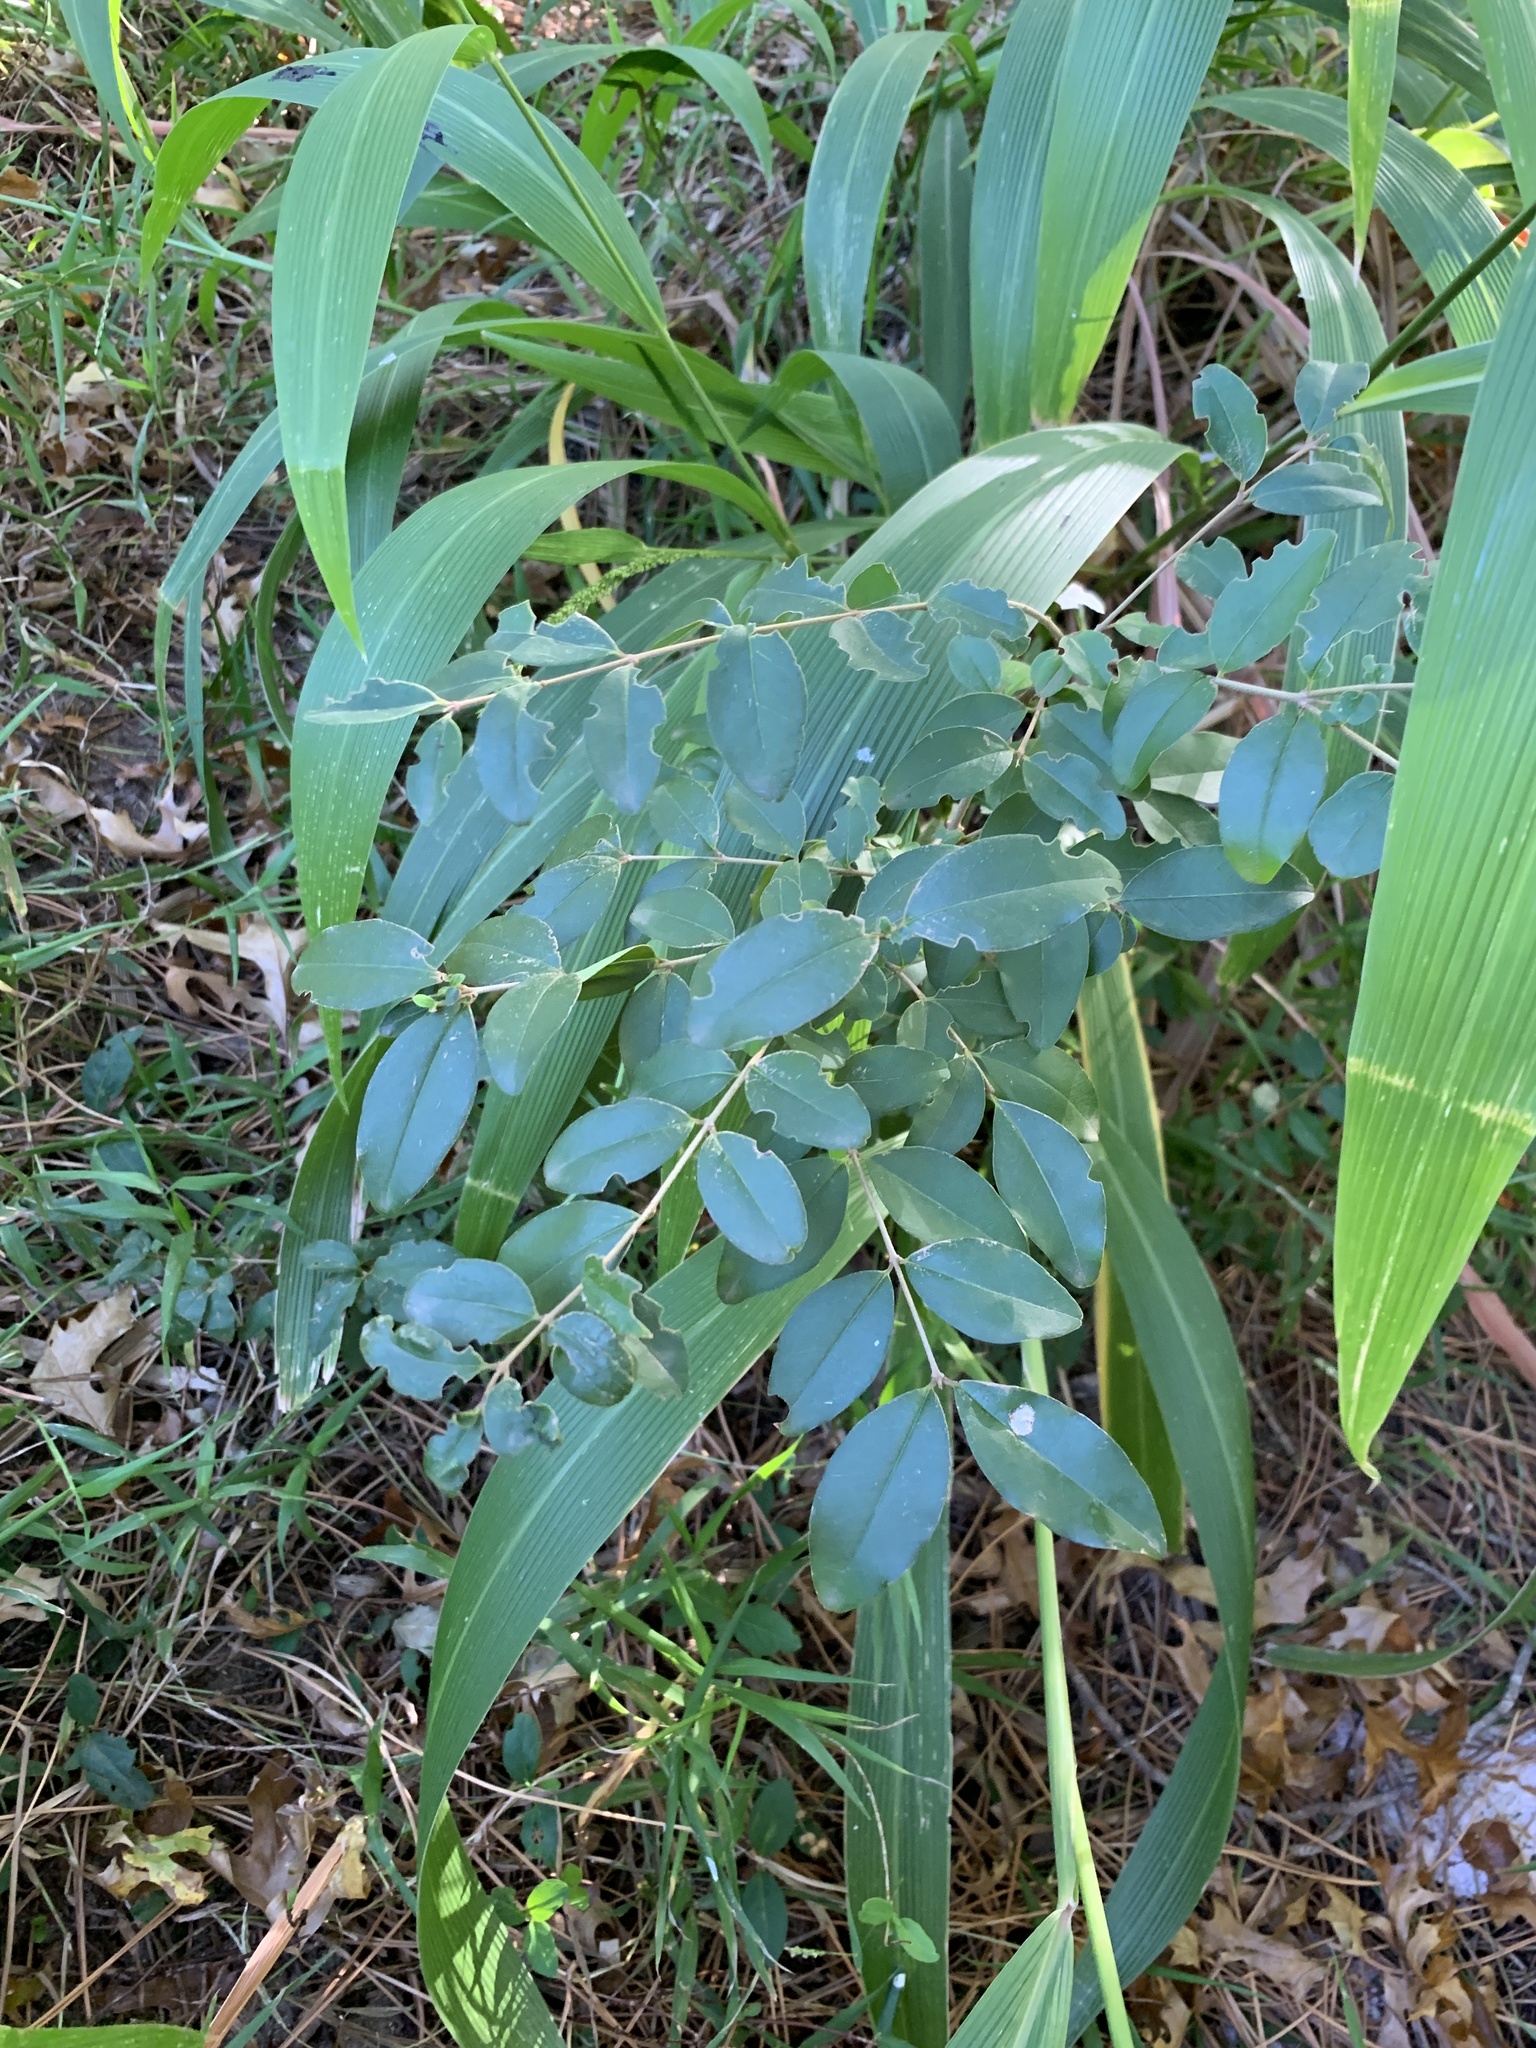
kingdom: Plantae
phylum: Tracheophyta
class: Magnoliopsida
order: Lamiales
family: Oleaceae
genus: Ligustrum
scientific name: Ligustrum sinense
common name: Chinese privet
